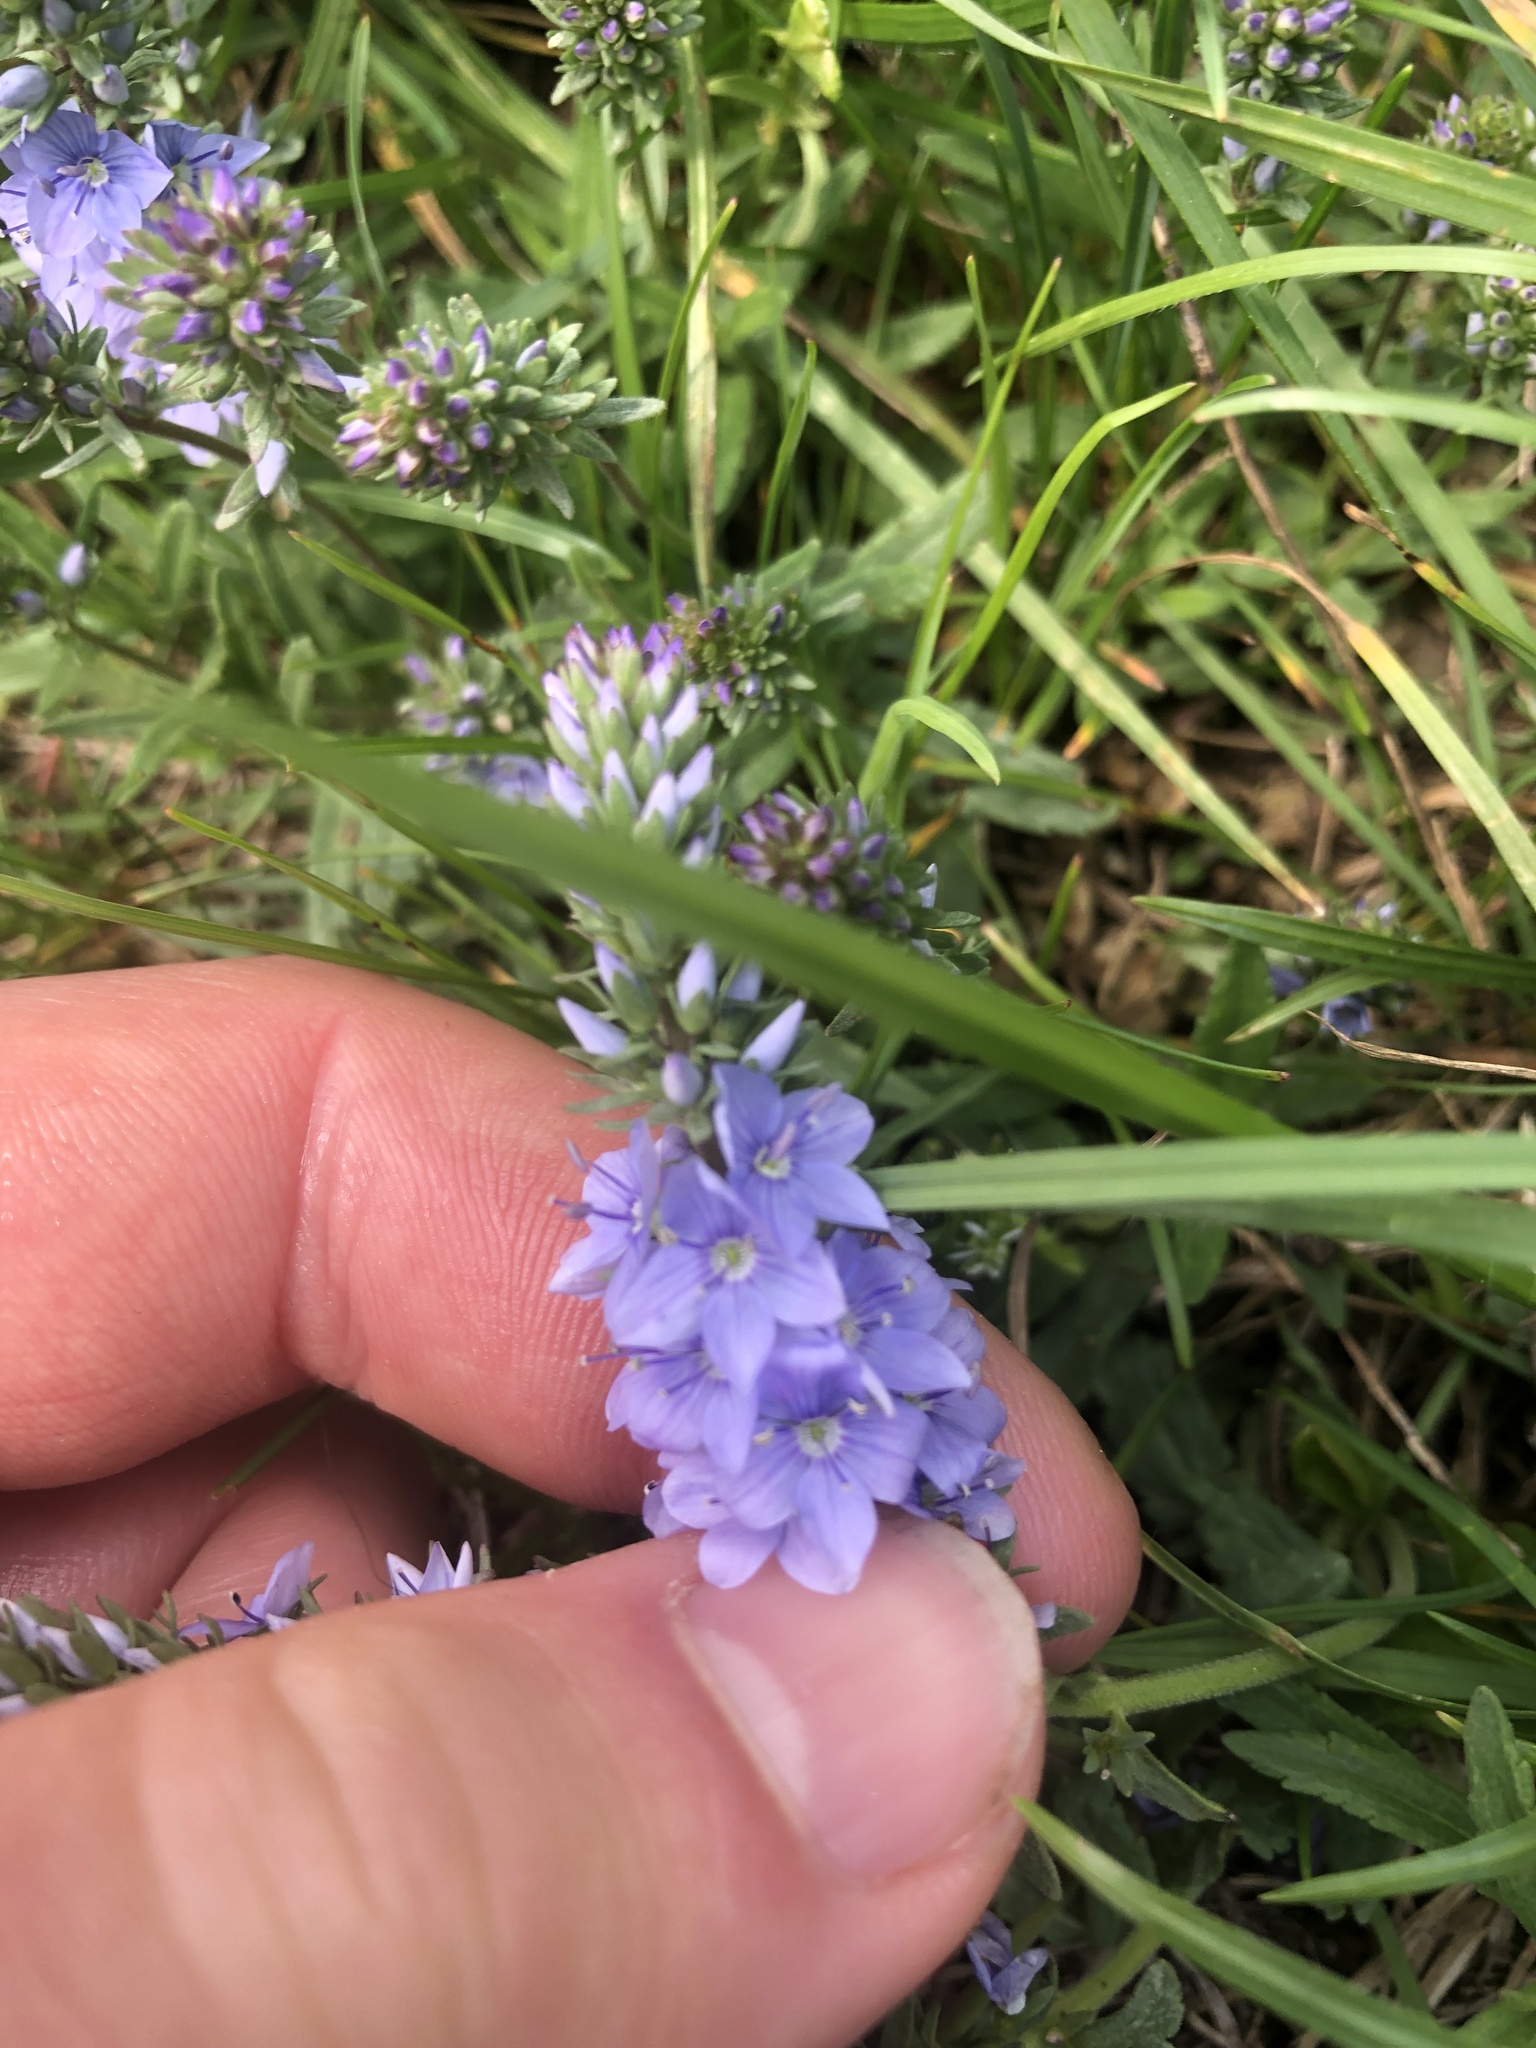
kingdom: Plantae
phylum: Tracheophyta
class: Magnoliopsida
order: Lamiales
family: Plantaginaceae
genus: Veronica
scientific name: Veronica prostrata
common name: Prostrate speedwell
